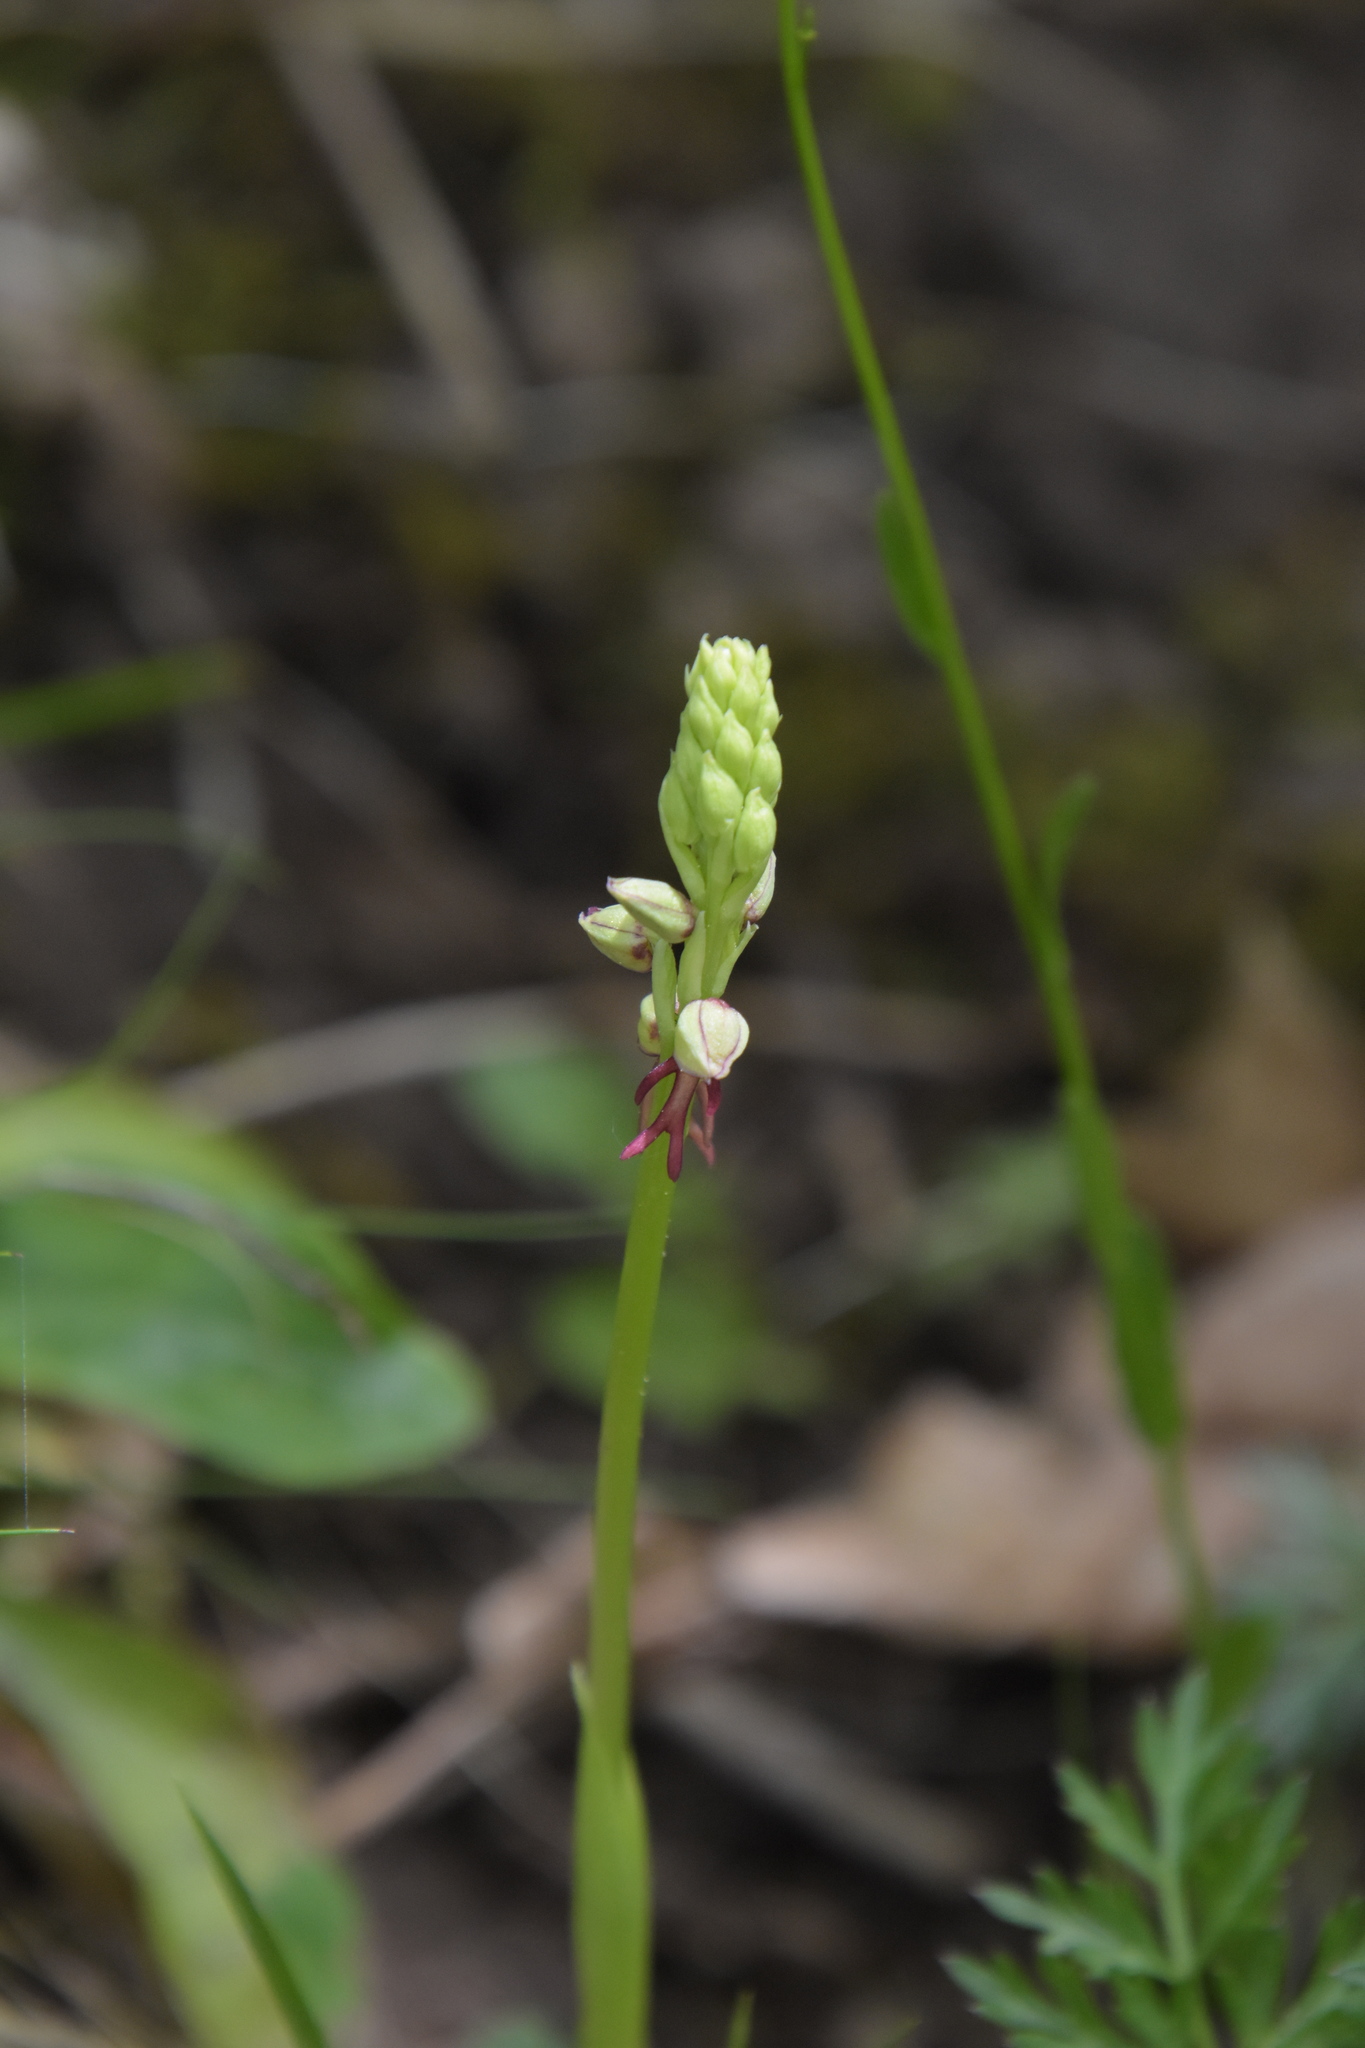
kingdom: Plantae
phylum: Tracheophyta
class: Liliopsida
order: Asparagales
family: Orchidaceae
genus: Orchis
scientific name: Orchis anthropophora
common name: Man orchid
